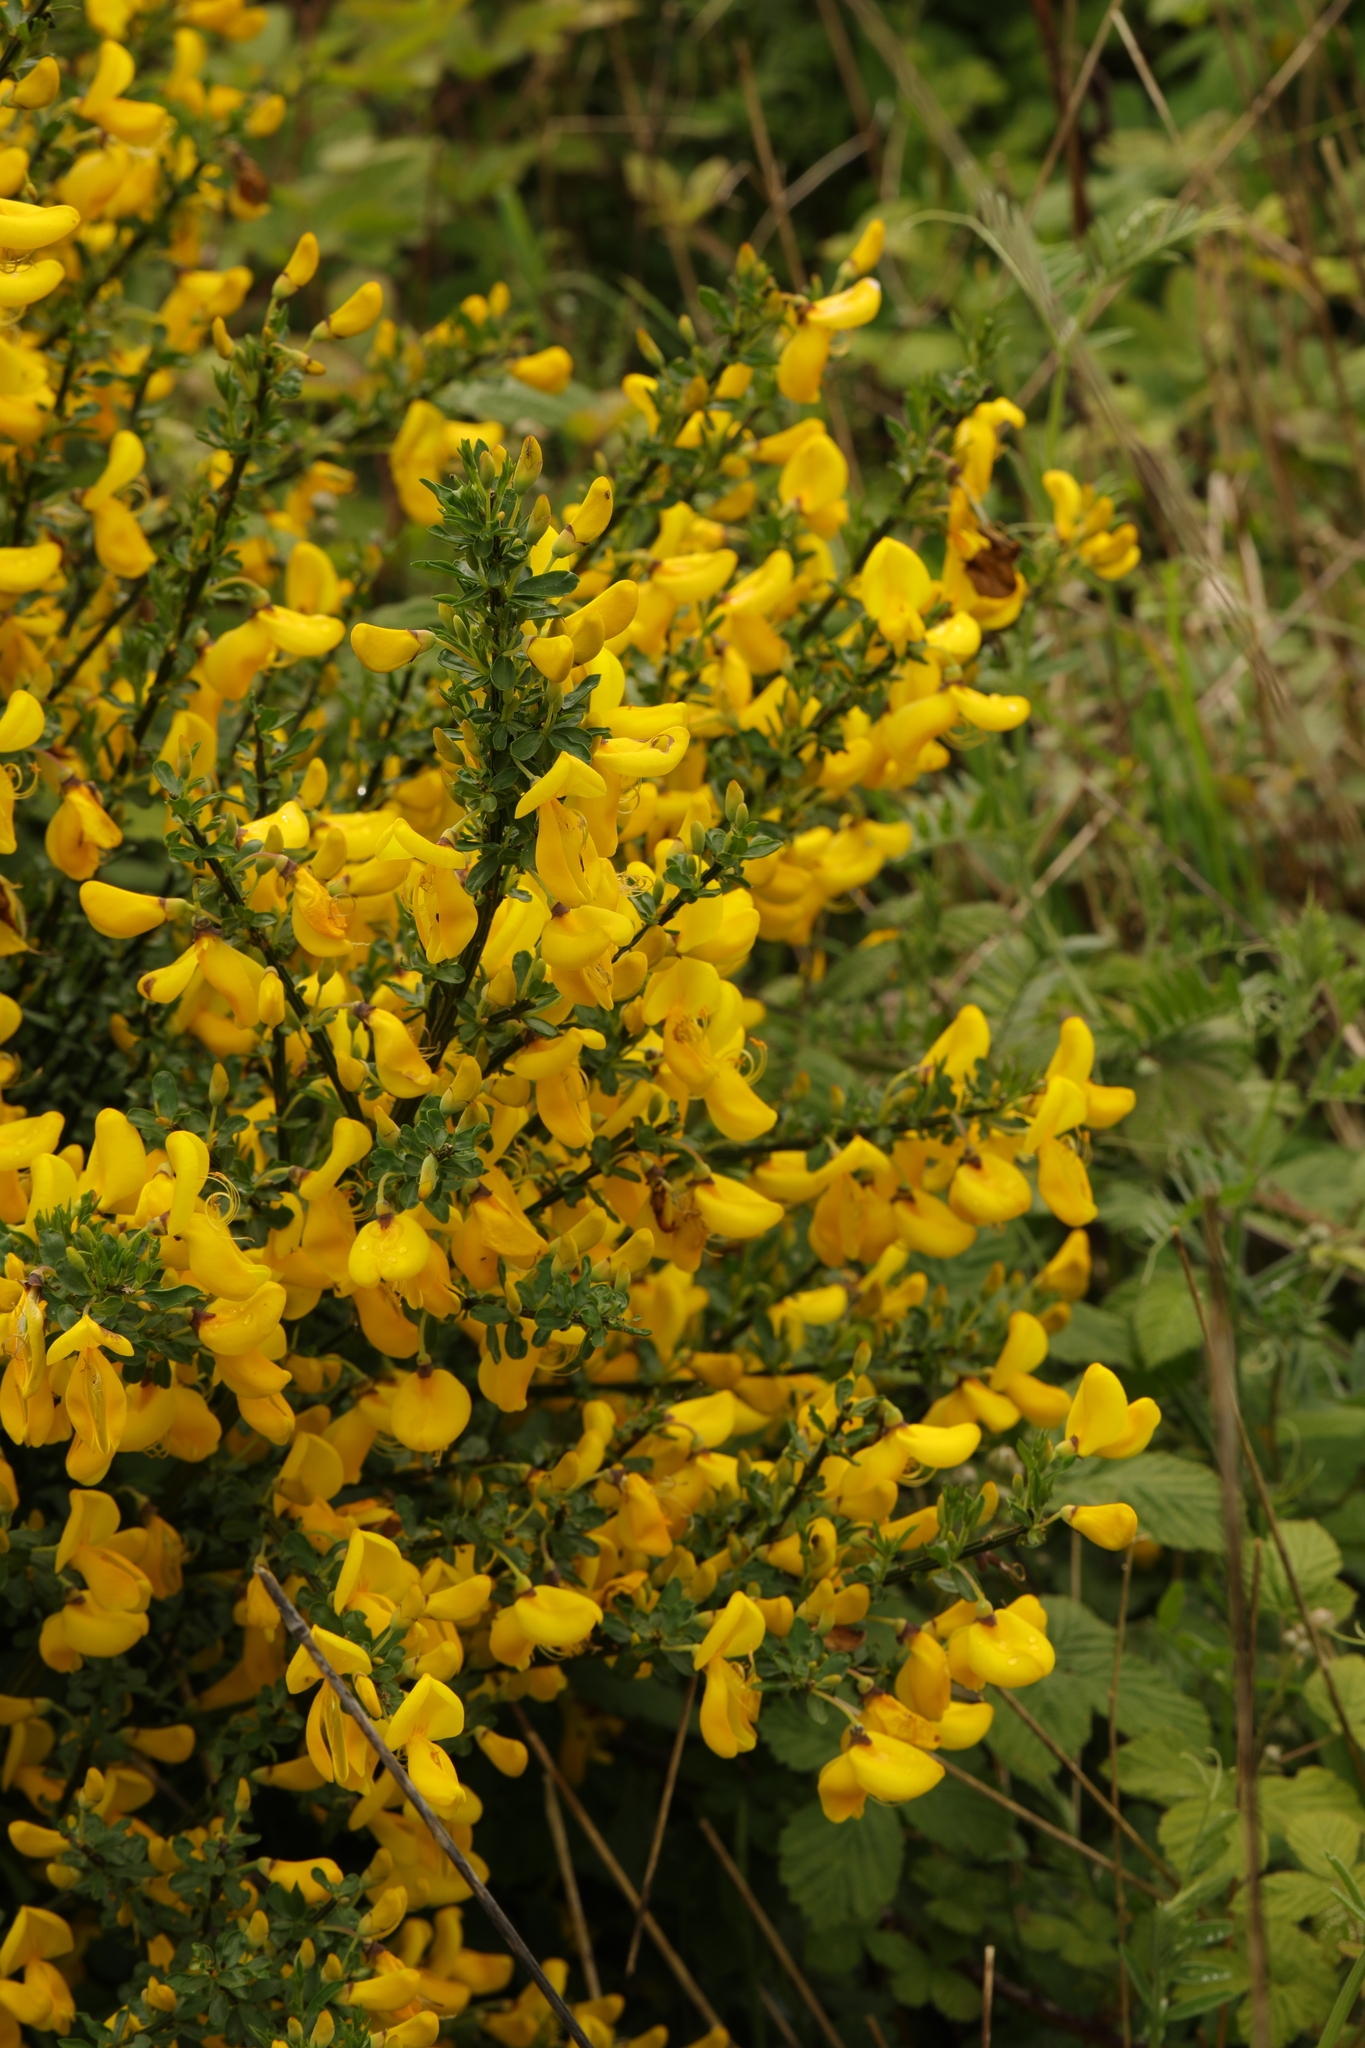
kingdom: Plantae
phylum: Tracheophyta
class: Magnoliopsida
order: Fabales
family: Fabaceae
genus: Cytisus
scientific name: Cytisus scoparius
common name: Scotch broom
